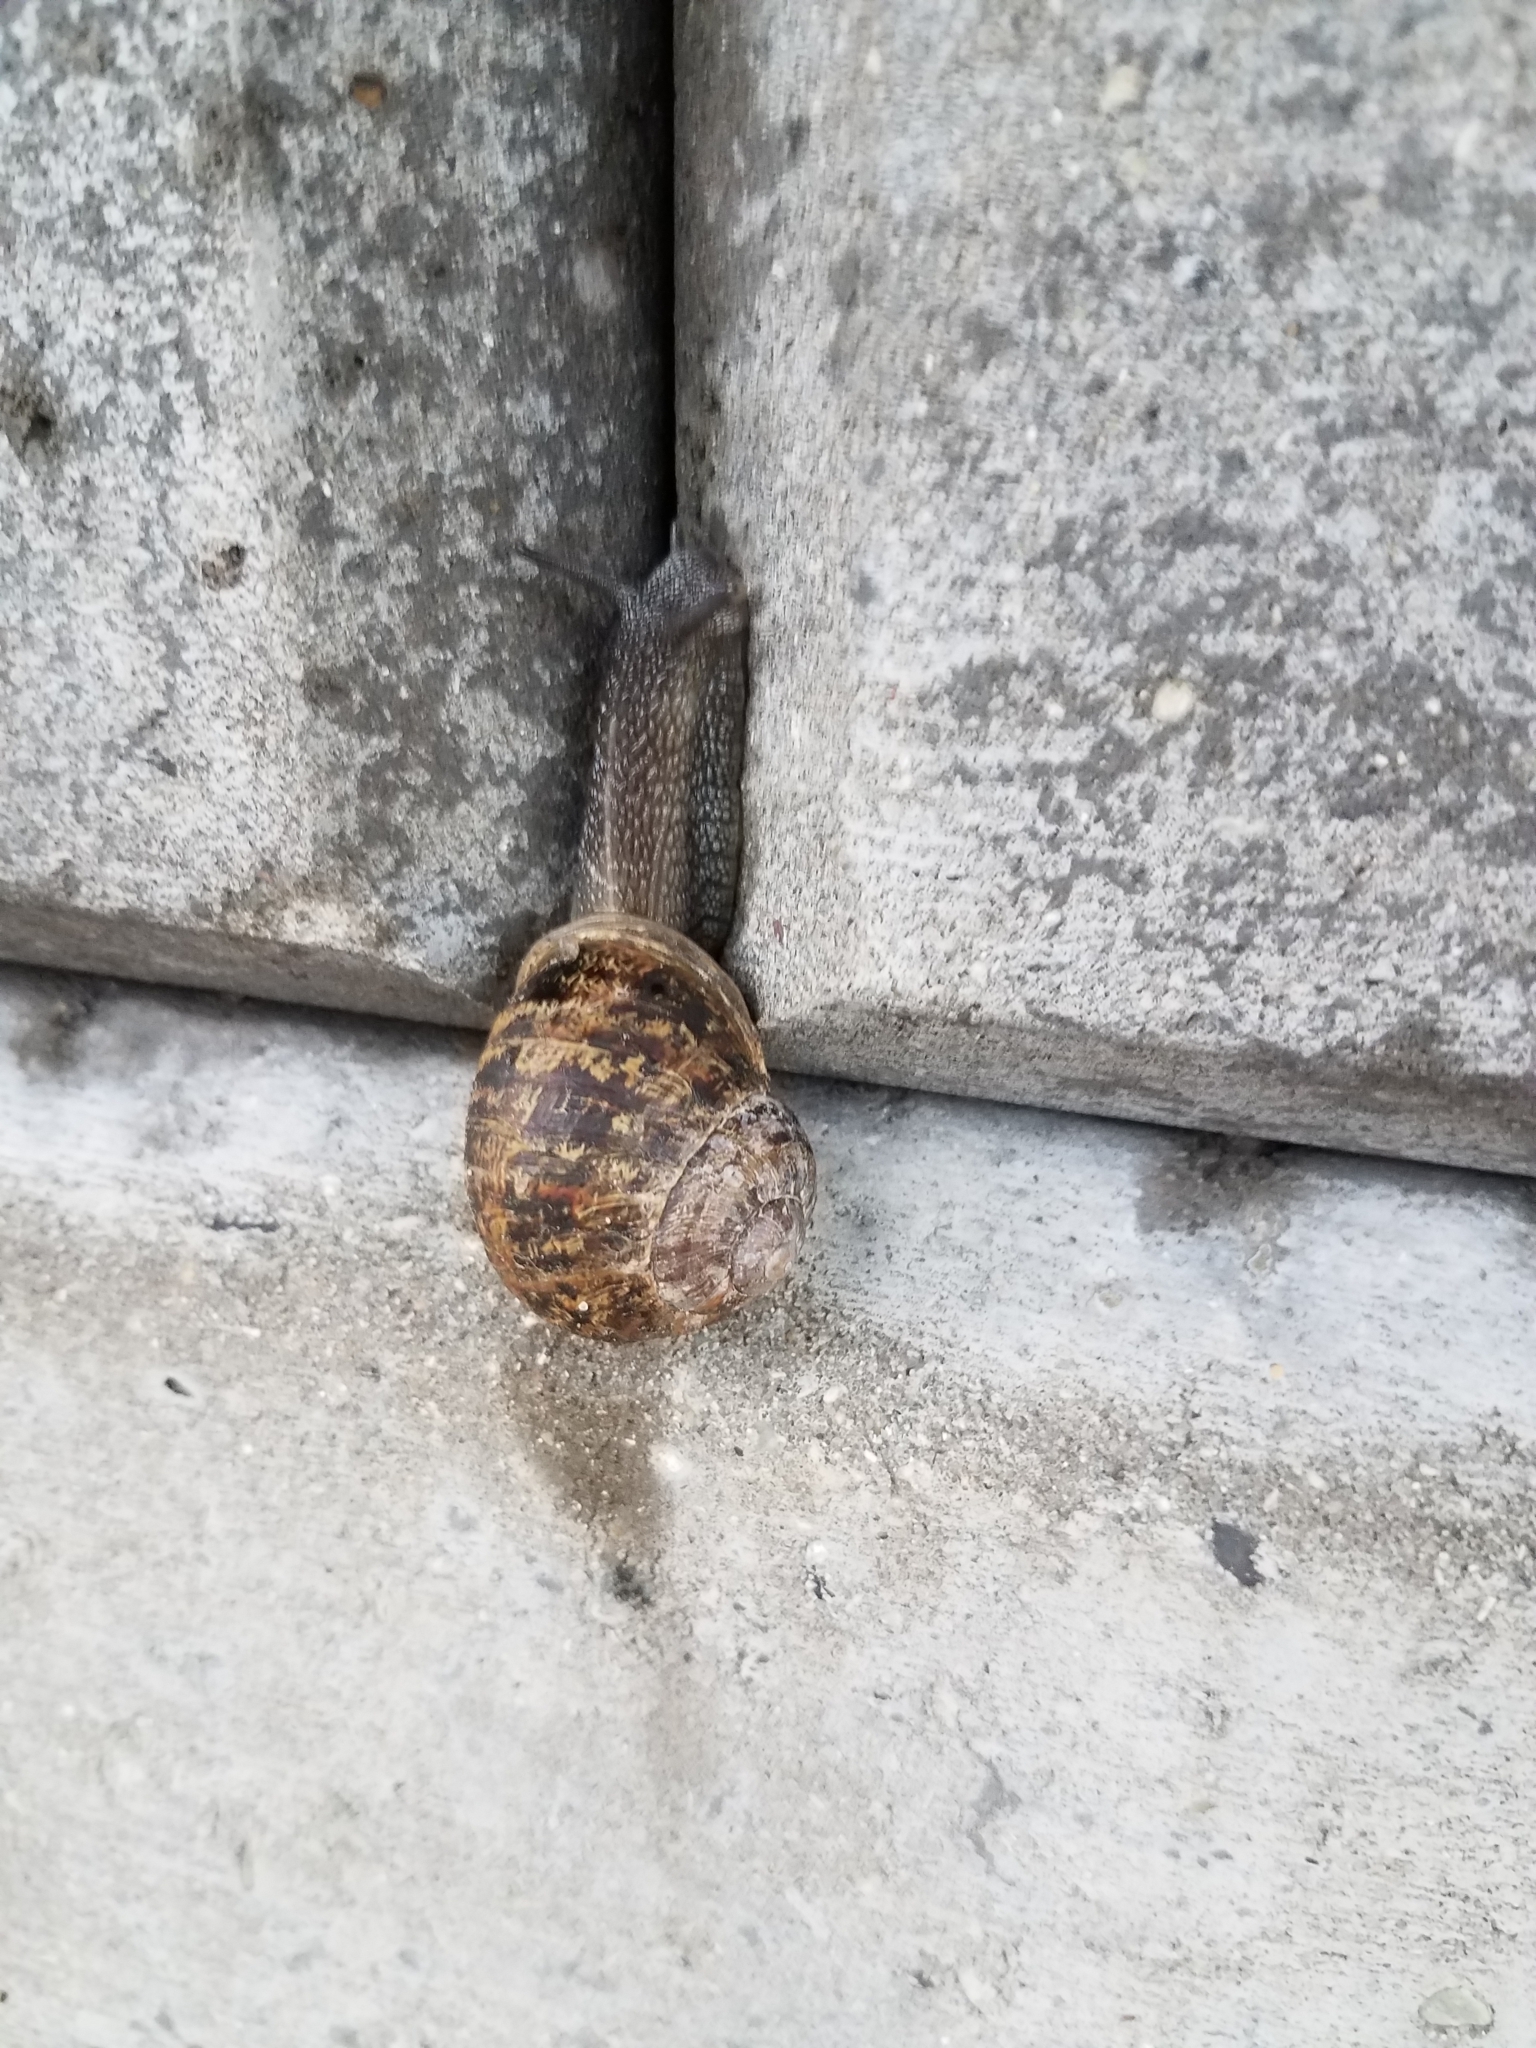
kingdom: Animalia
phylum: Mollusca
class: Gastropoda
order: Stylommatophora
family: Helicidae
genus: Cornu
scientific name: Cornu aspersum
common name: Brown garden snail
